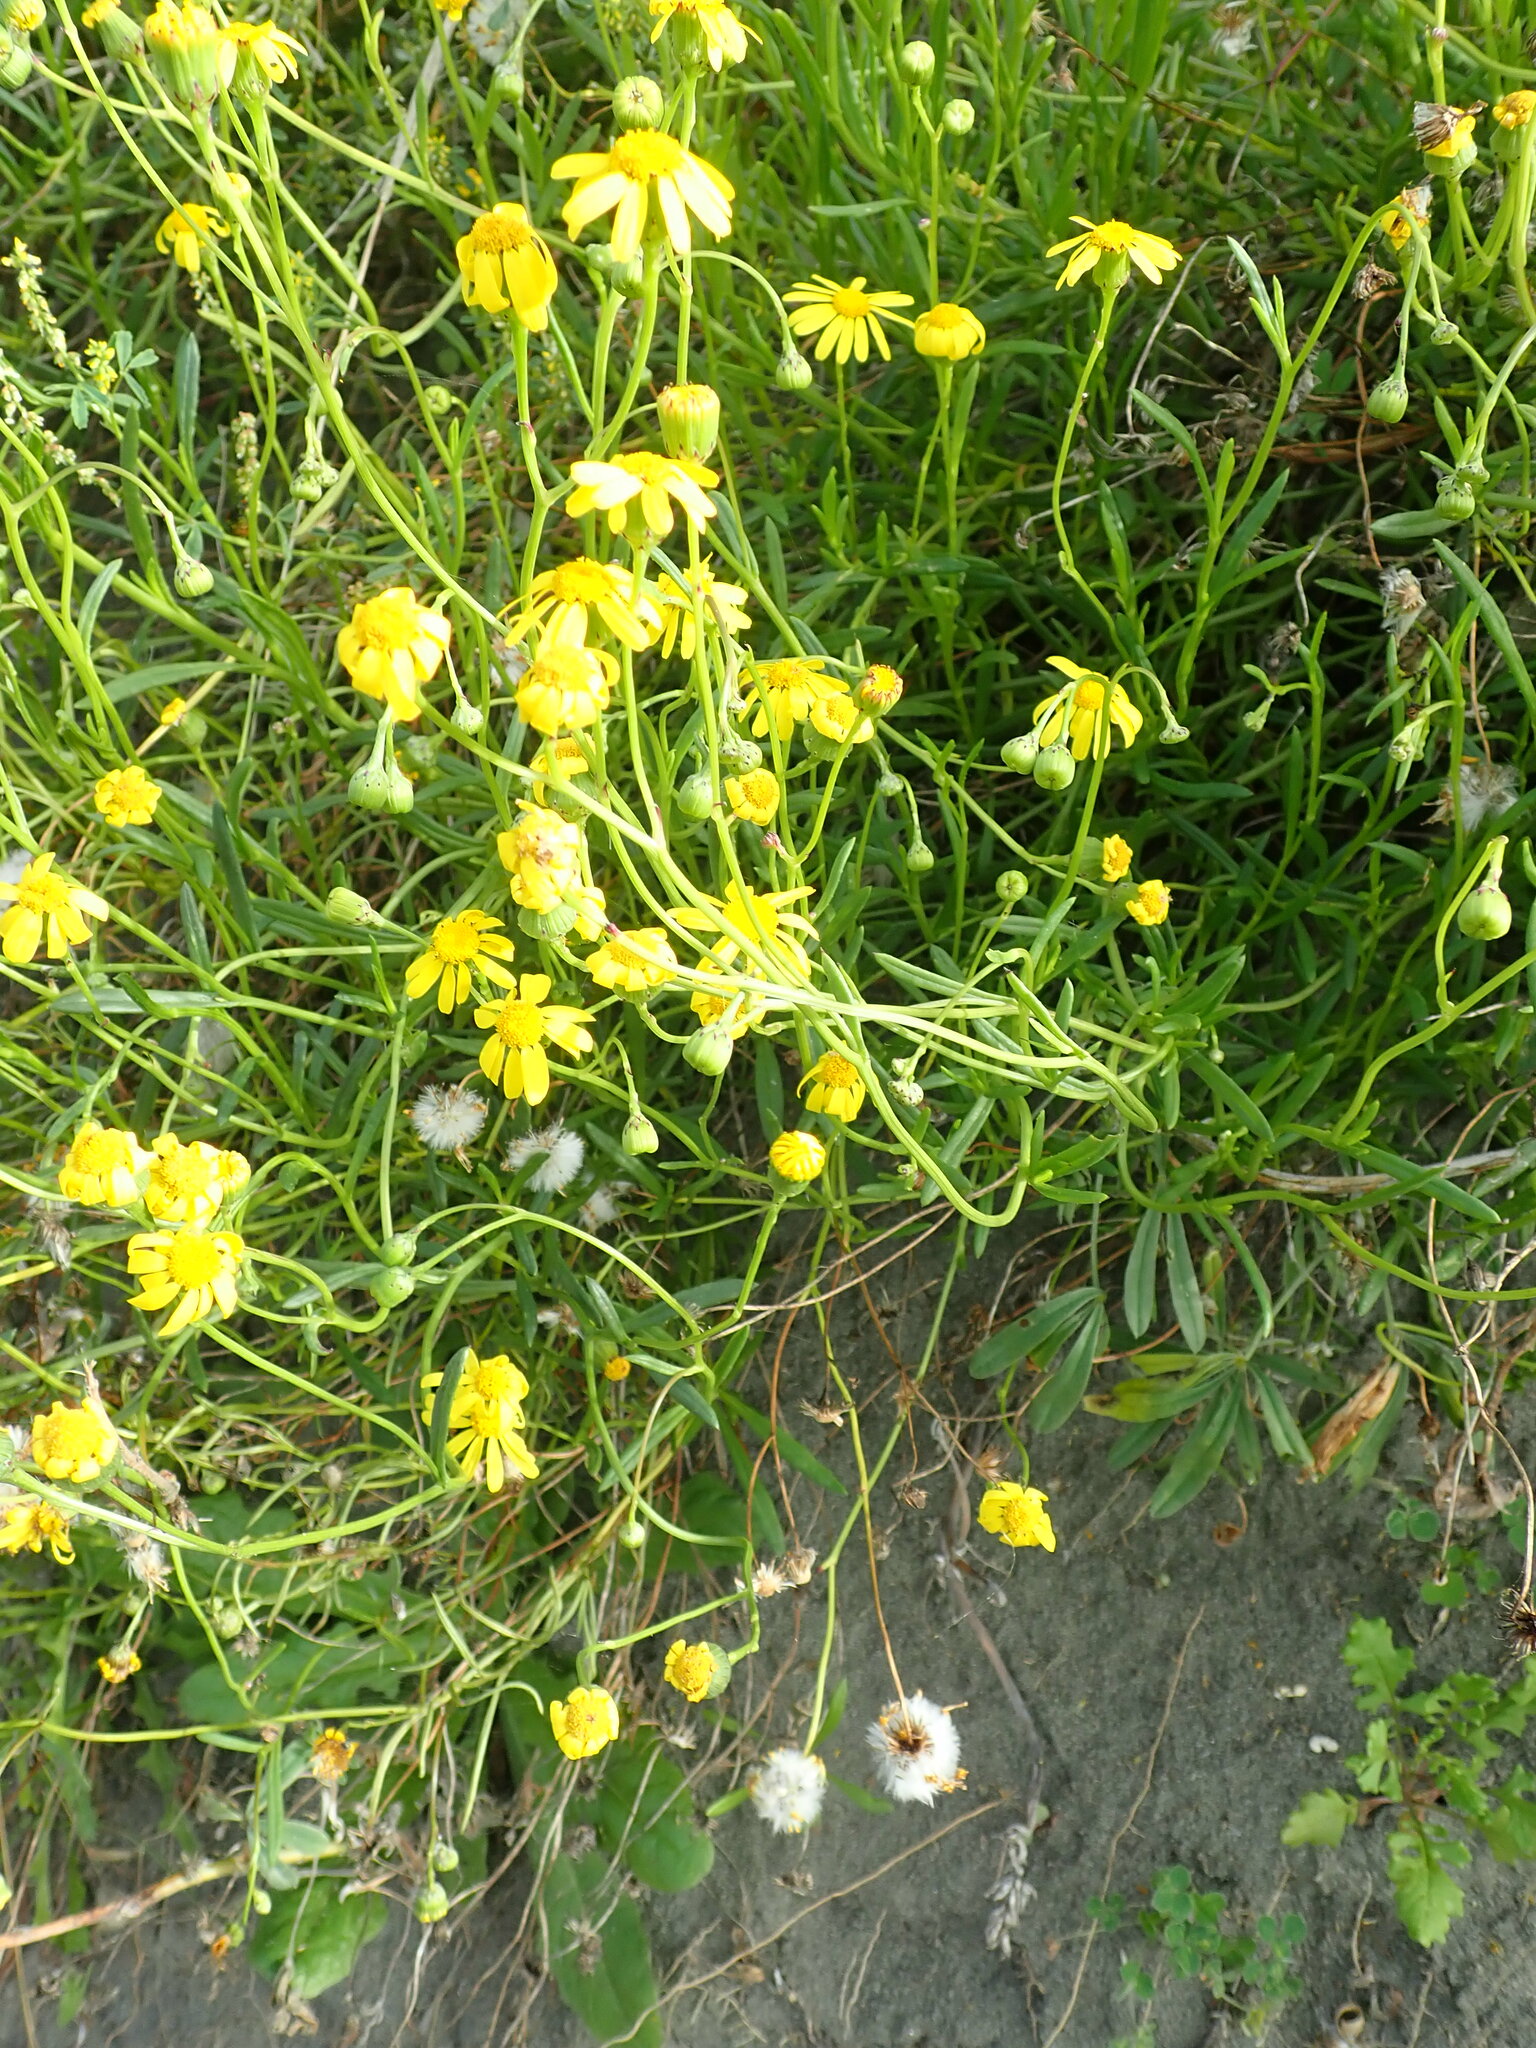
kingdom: Plantae
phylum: Tracheophyta
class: Magnoliopsida
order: Asterales
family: Asteraceae
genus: Senecio
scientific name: Senecio skirrhodon
